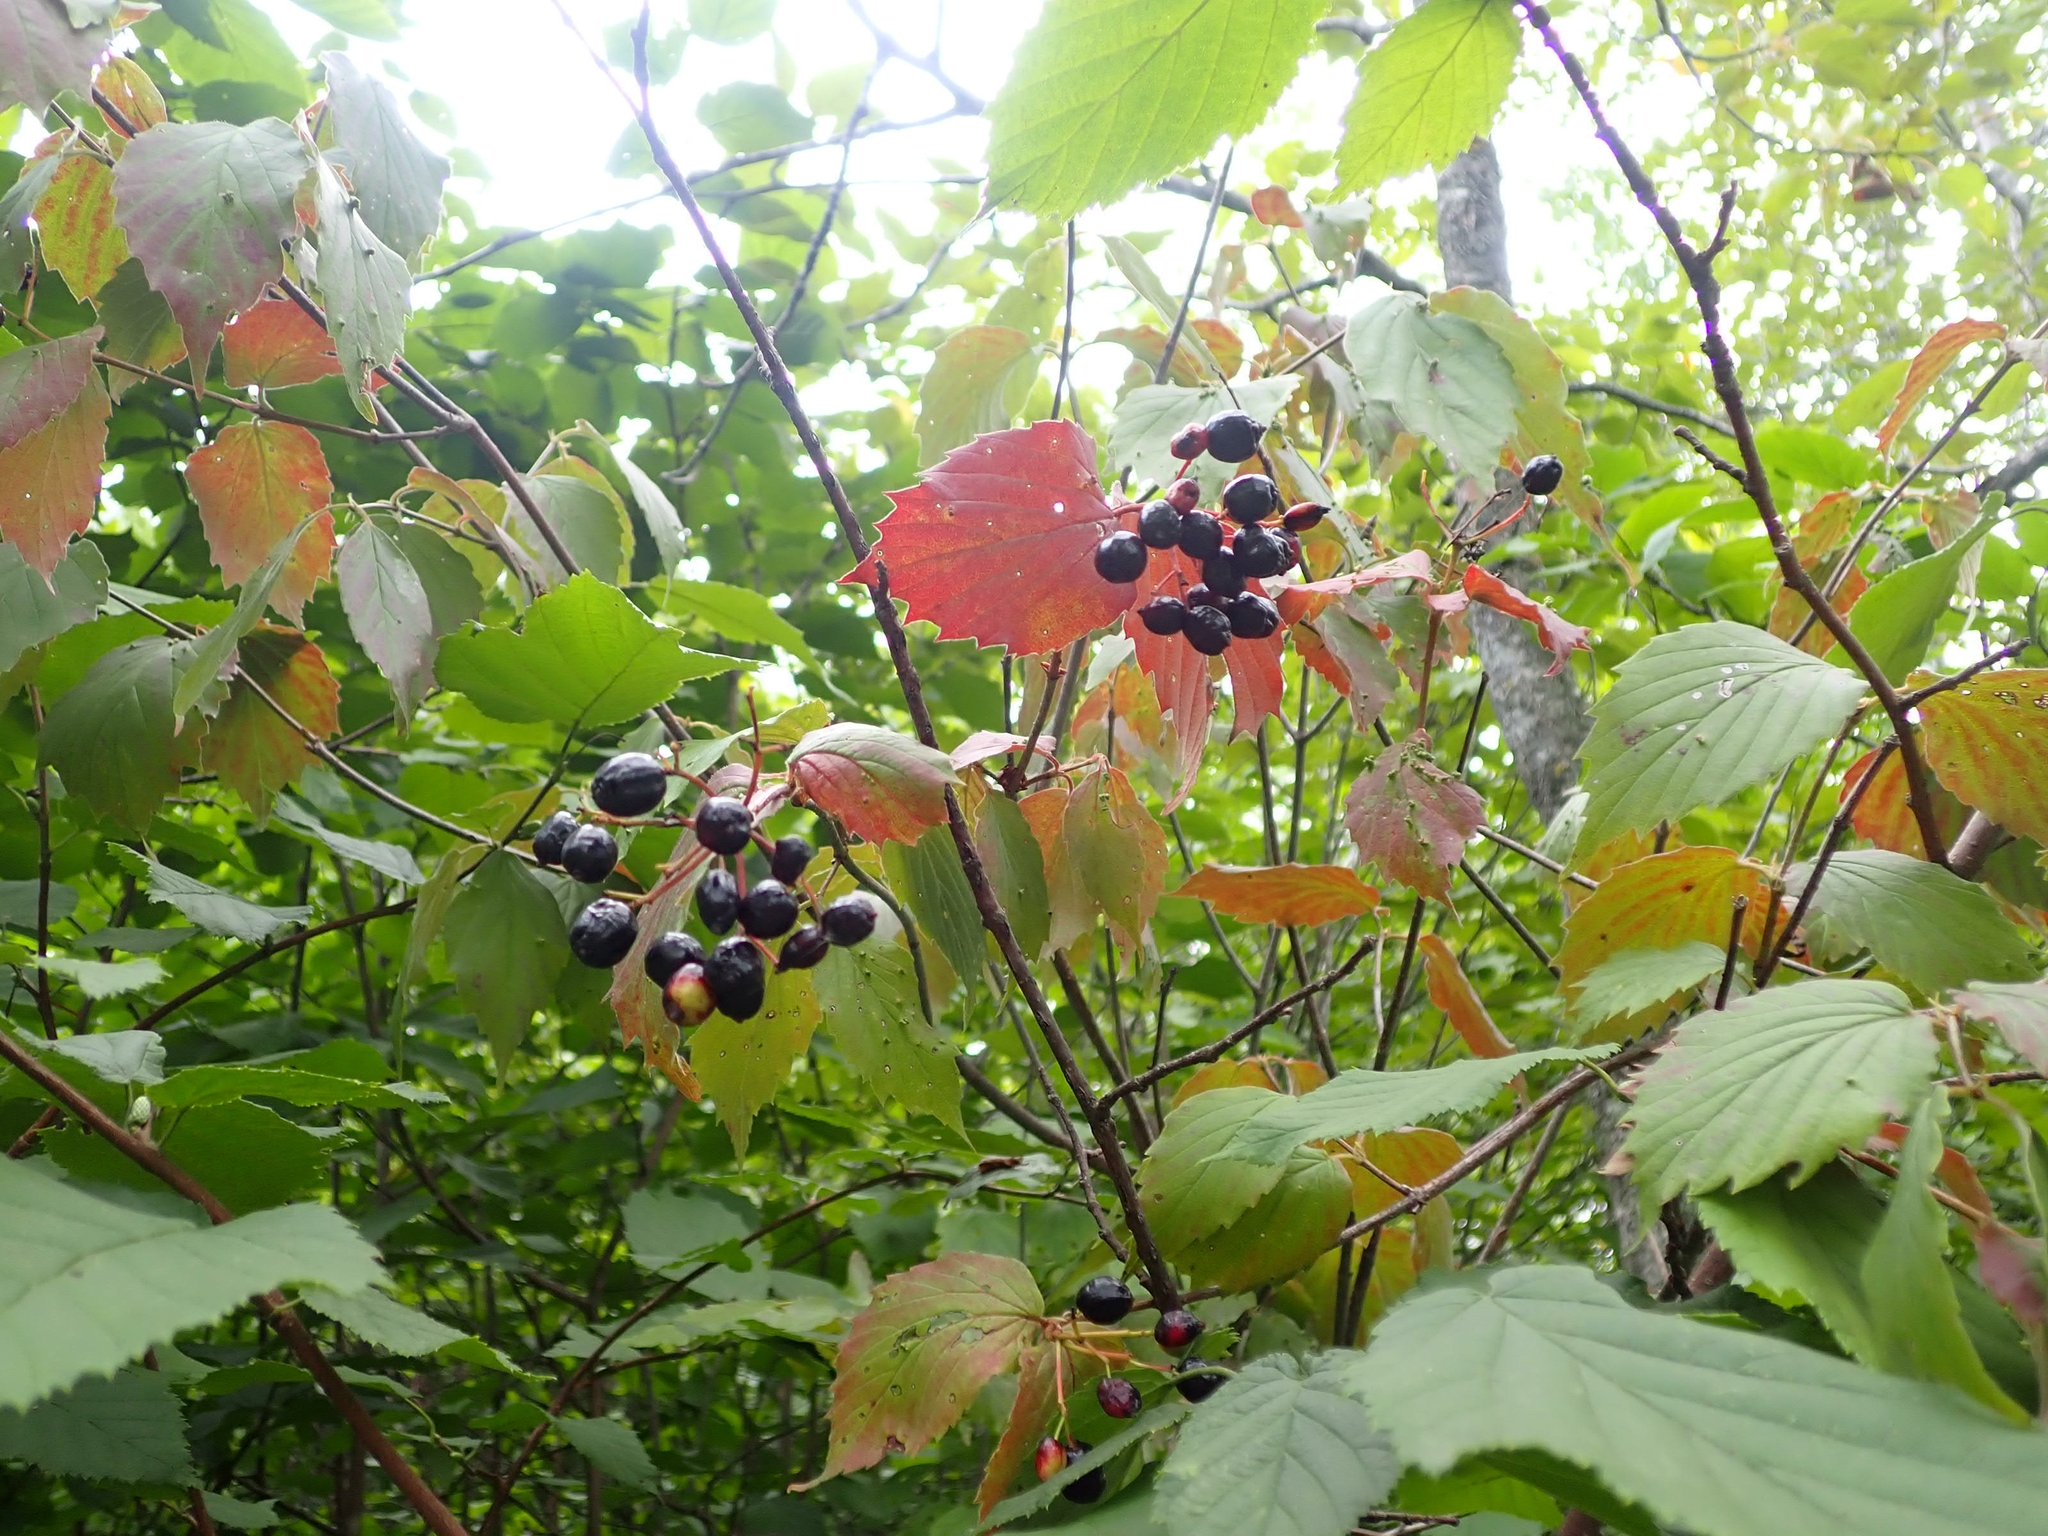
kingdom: Plantae
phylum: Tracheophyta
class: Magnoliopsida
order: Dipsacales
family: Viburnaceae
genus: Viburnum
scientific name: Viburnum rafinesqueanum
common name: Downy arrow-wood
